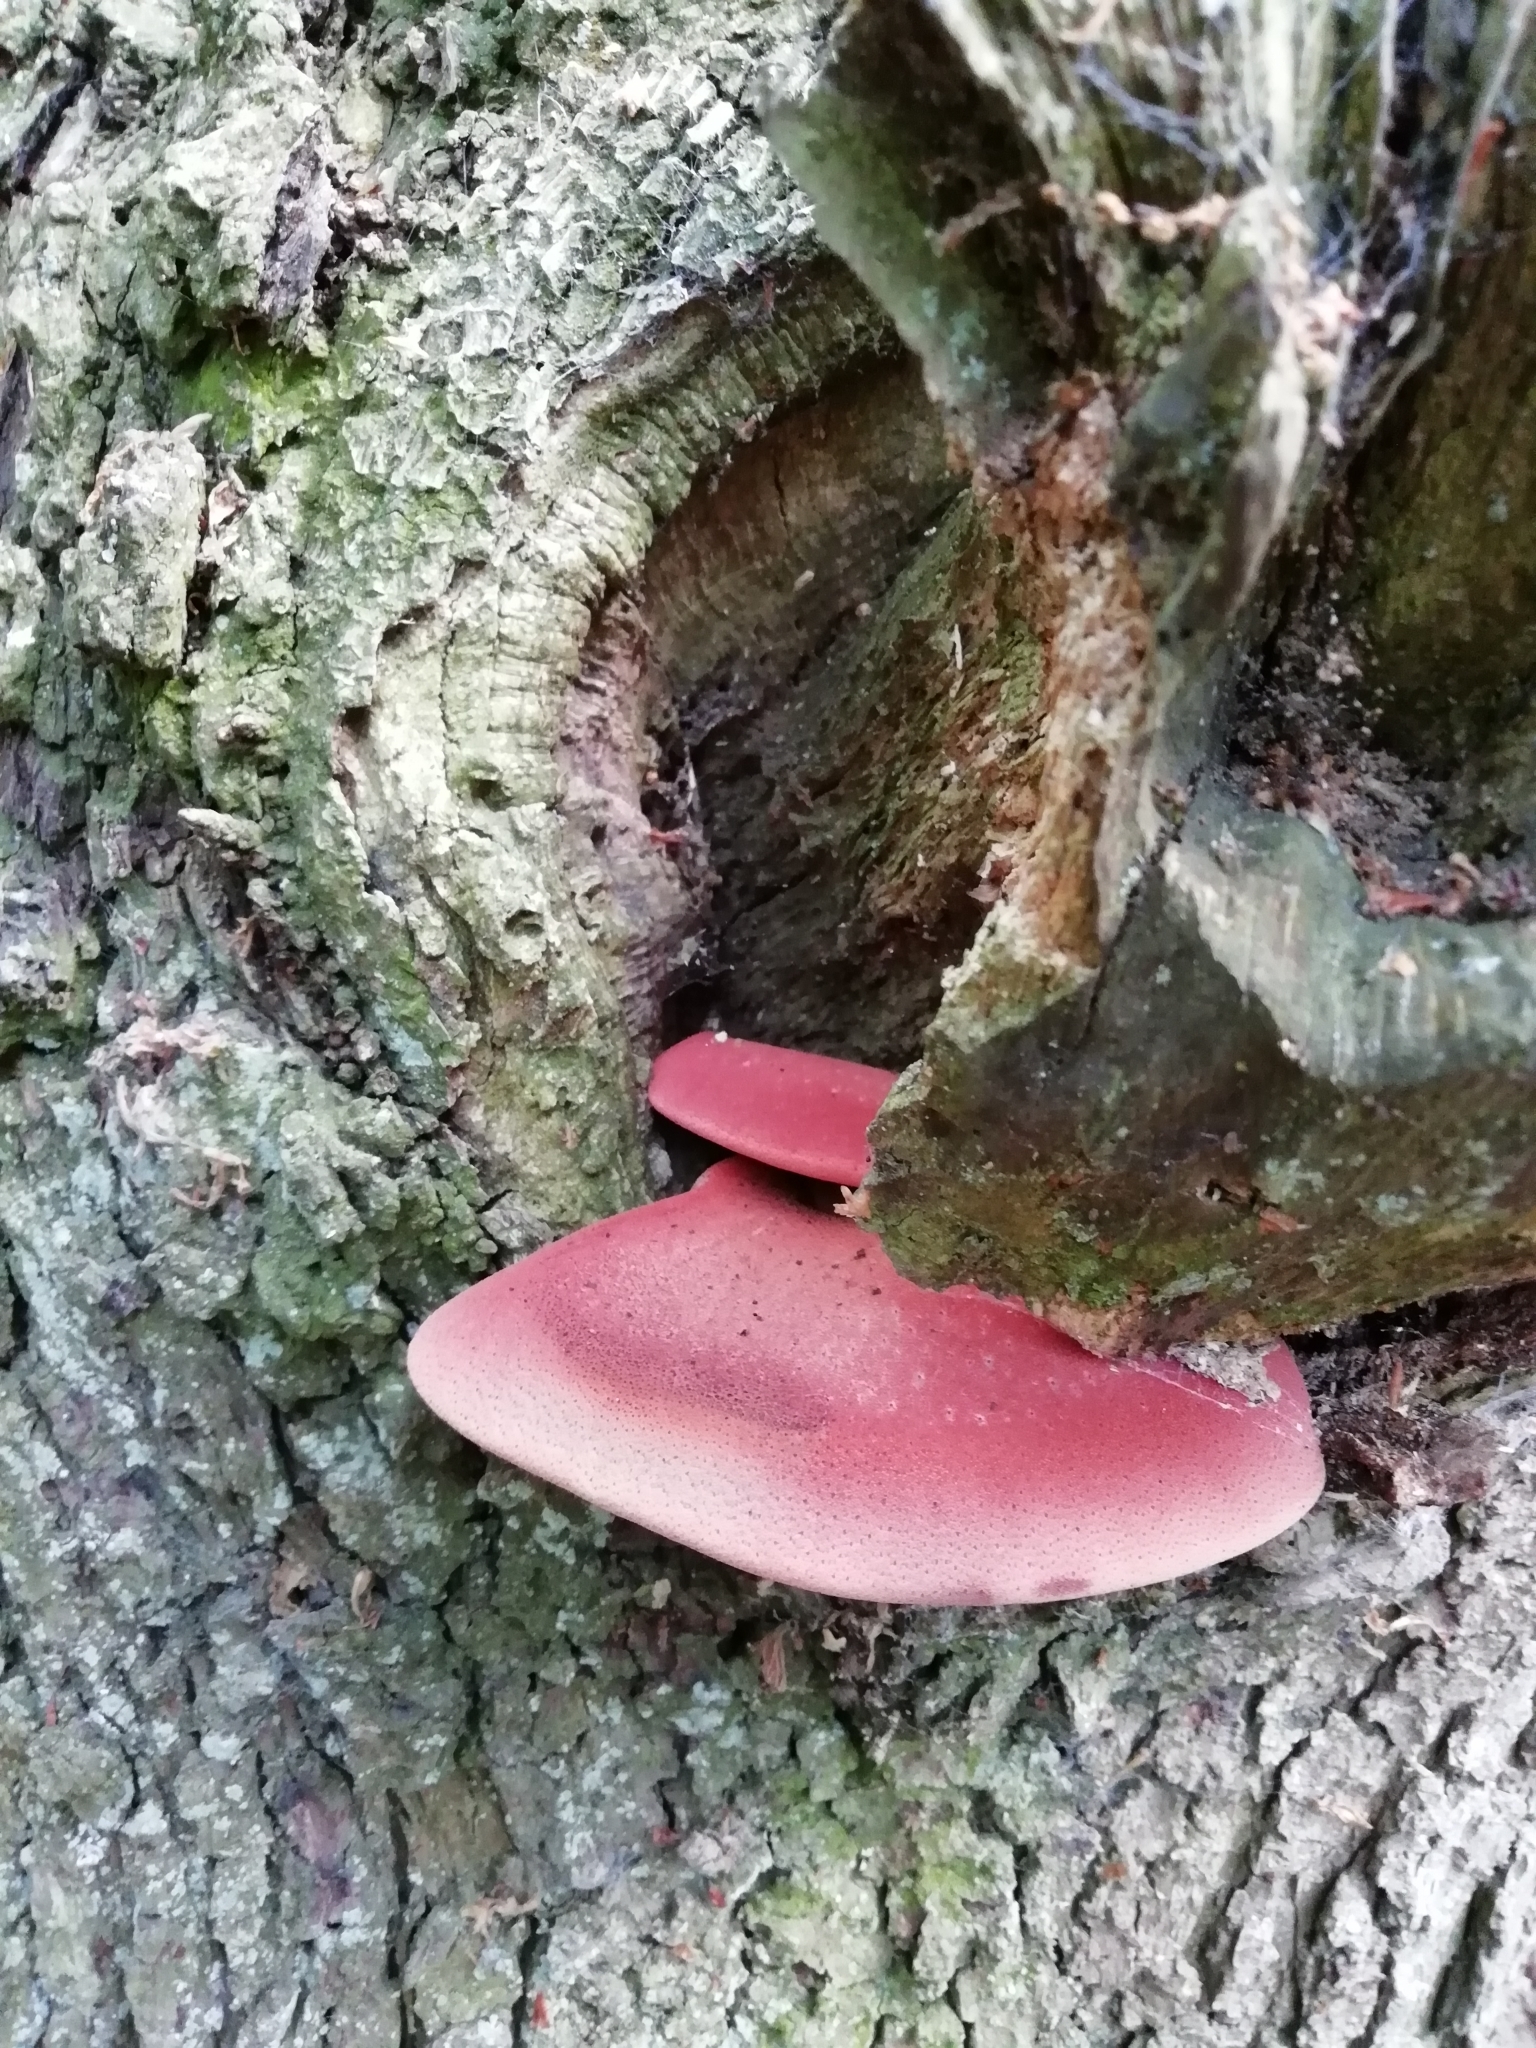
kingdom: Fungi
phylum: Basidiomycota
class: Agaricomycetes
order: Agaricales
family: Fistulinaceae
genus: Fistulina
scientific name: Fistulina hepatica
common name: Beef-steak fungus
